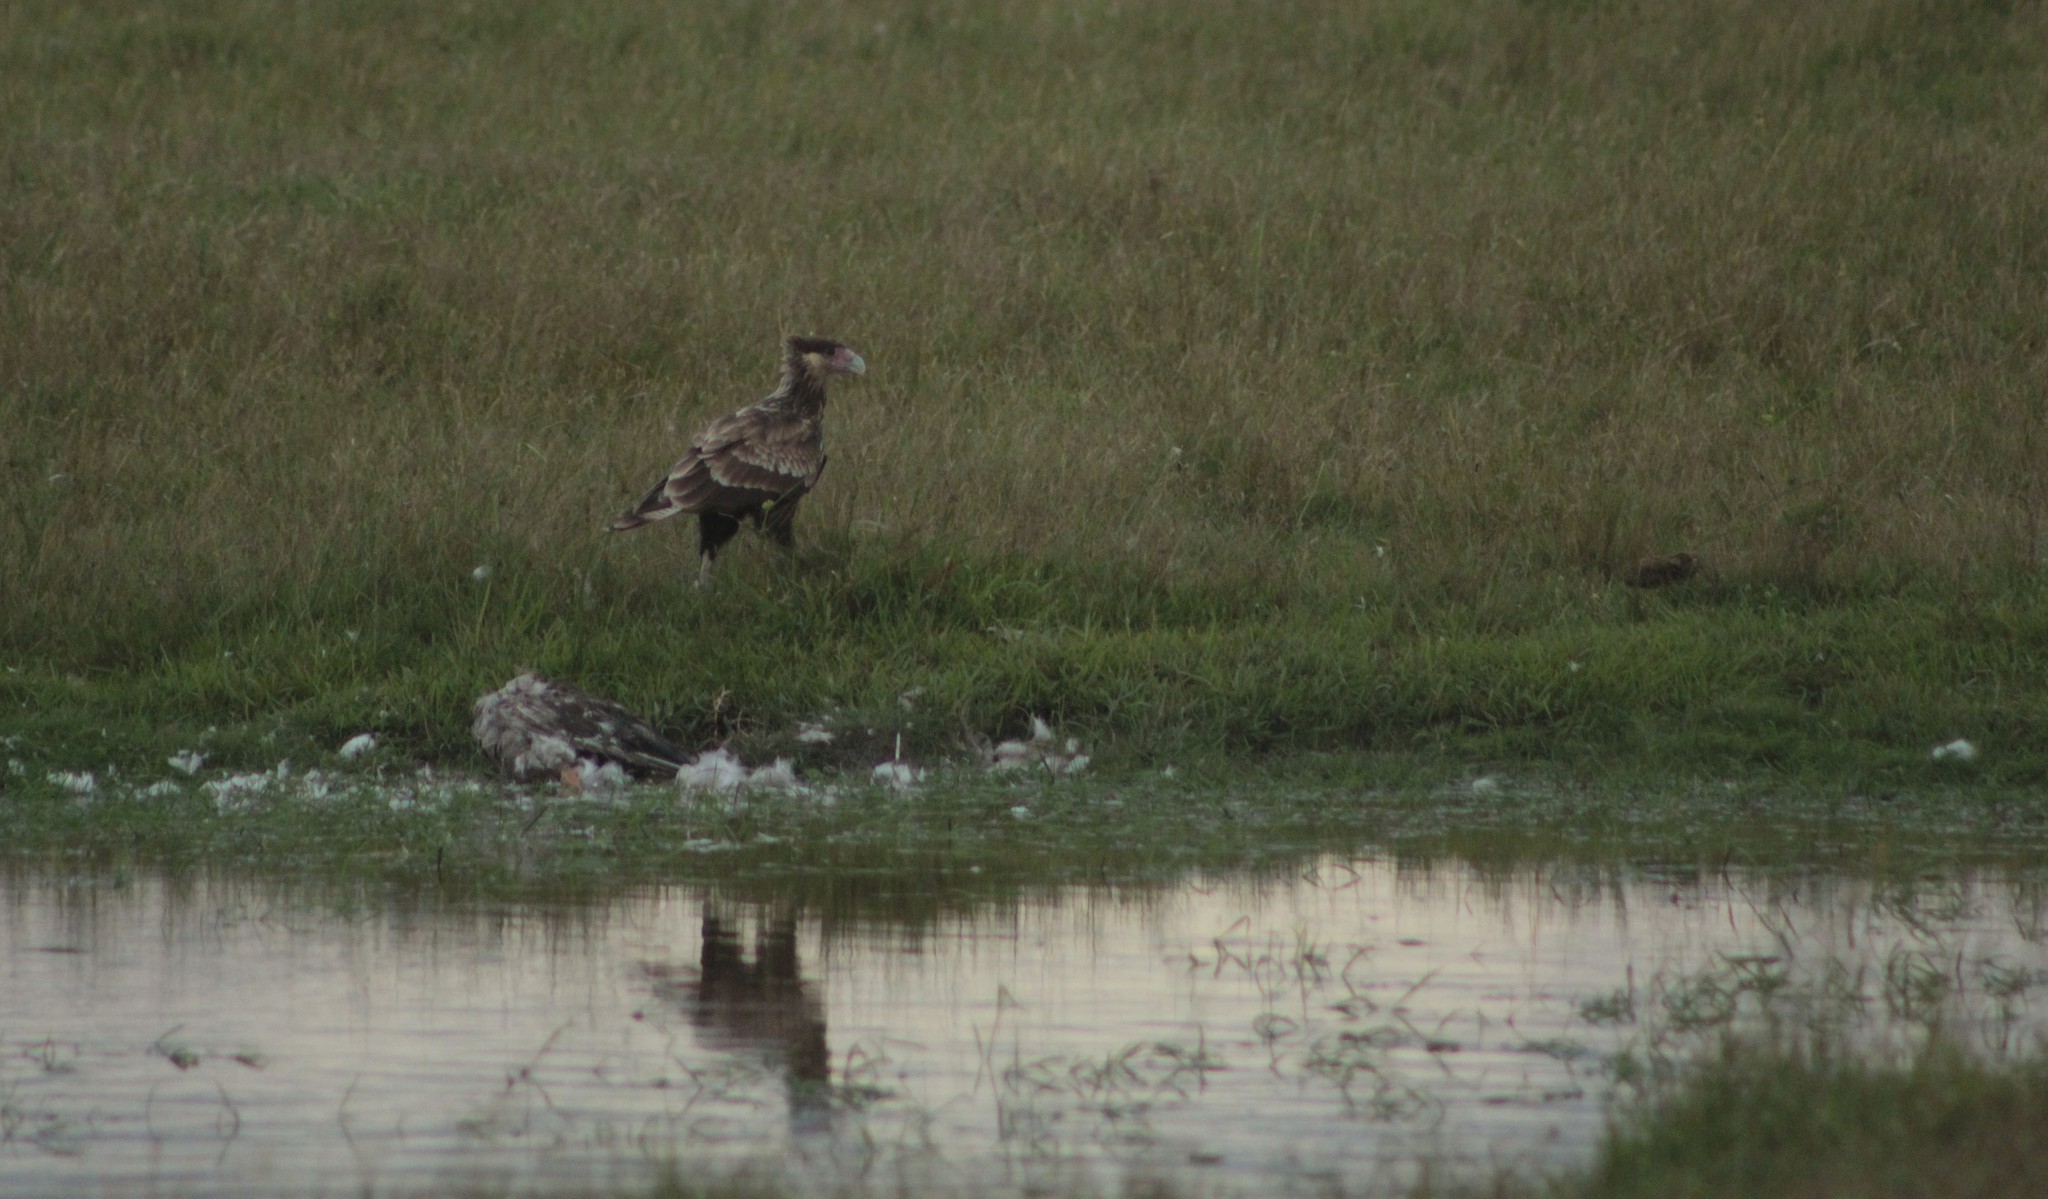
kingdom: Animalia
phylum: Chordata
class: Aves
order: Falconiformes
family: Falconidae
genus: Caracara
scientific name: Caracara plancus
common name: Southern caracara
